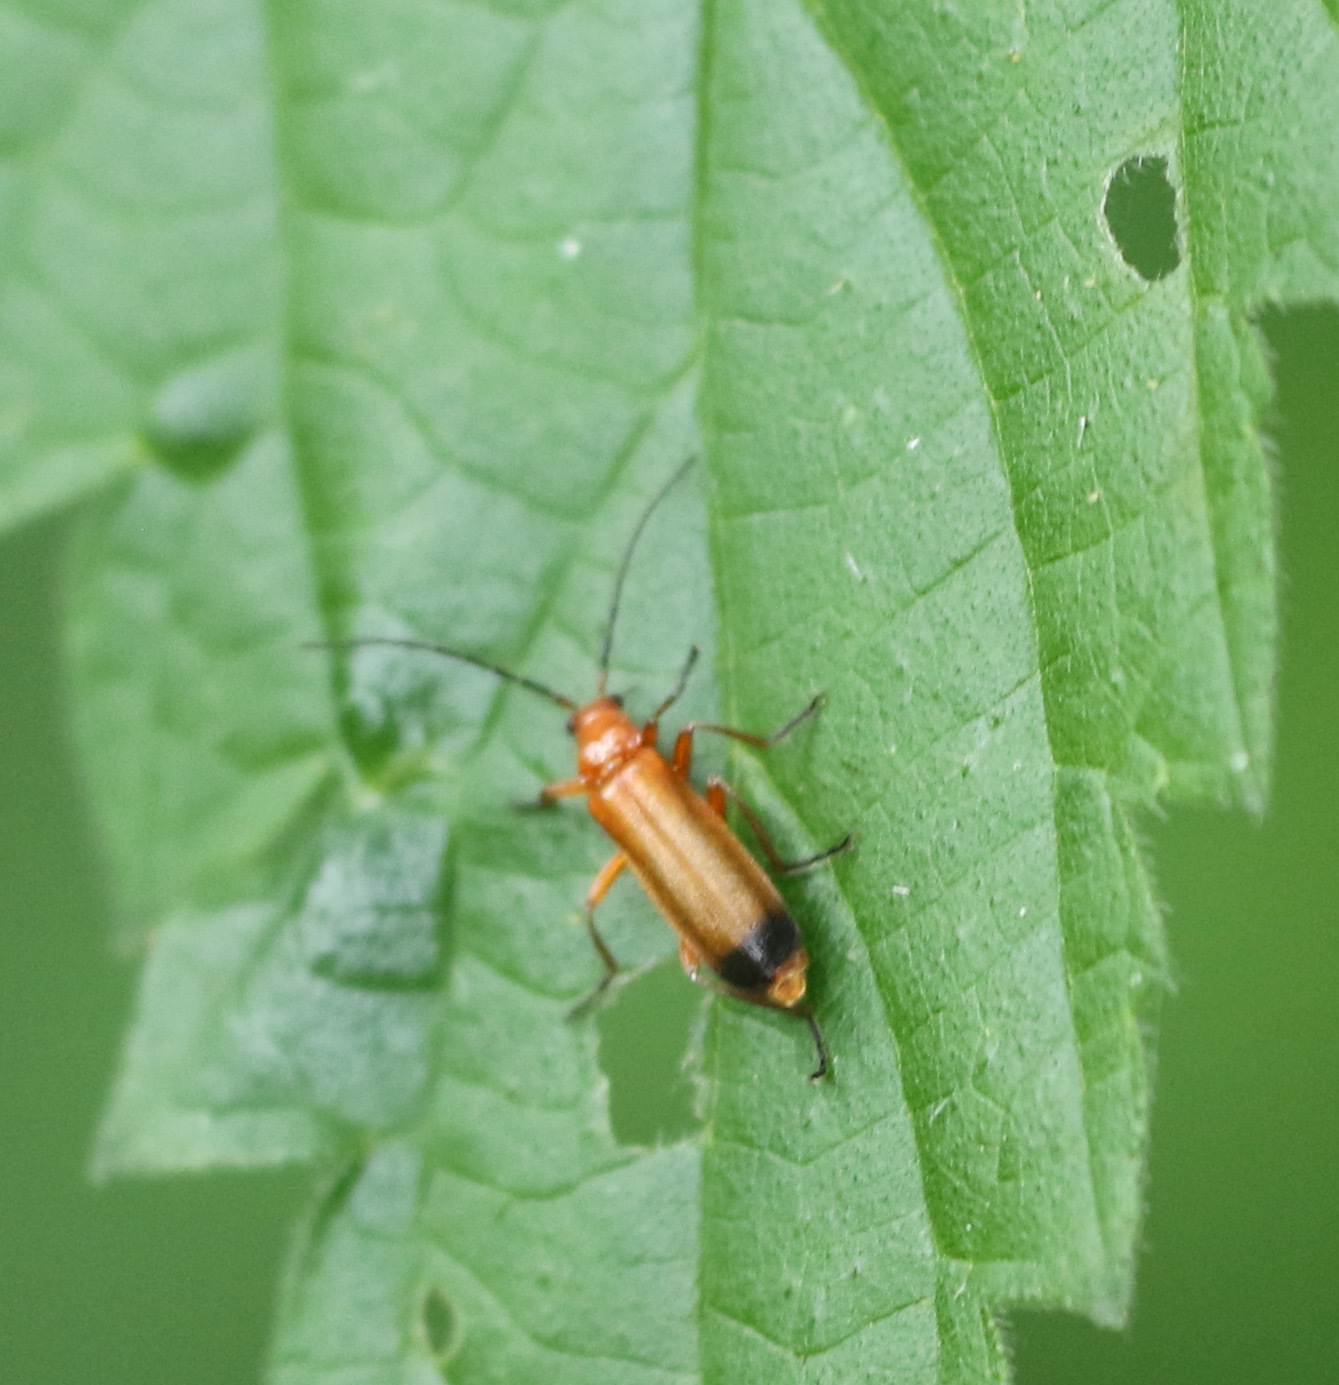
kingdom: Animalia
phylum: Arthropoda
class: Insecta
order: Coleoptera
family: Cantharidae
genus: Rhagonycha
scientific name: Rhagonycha fulva
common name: Common red soldier beetle
